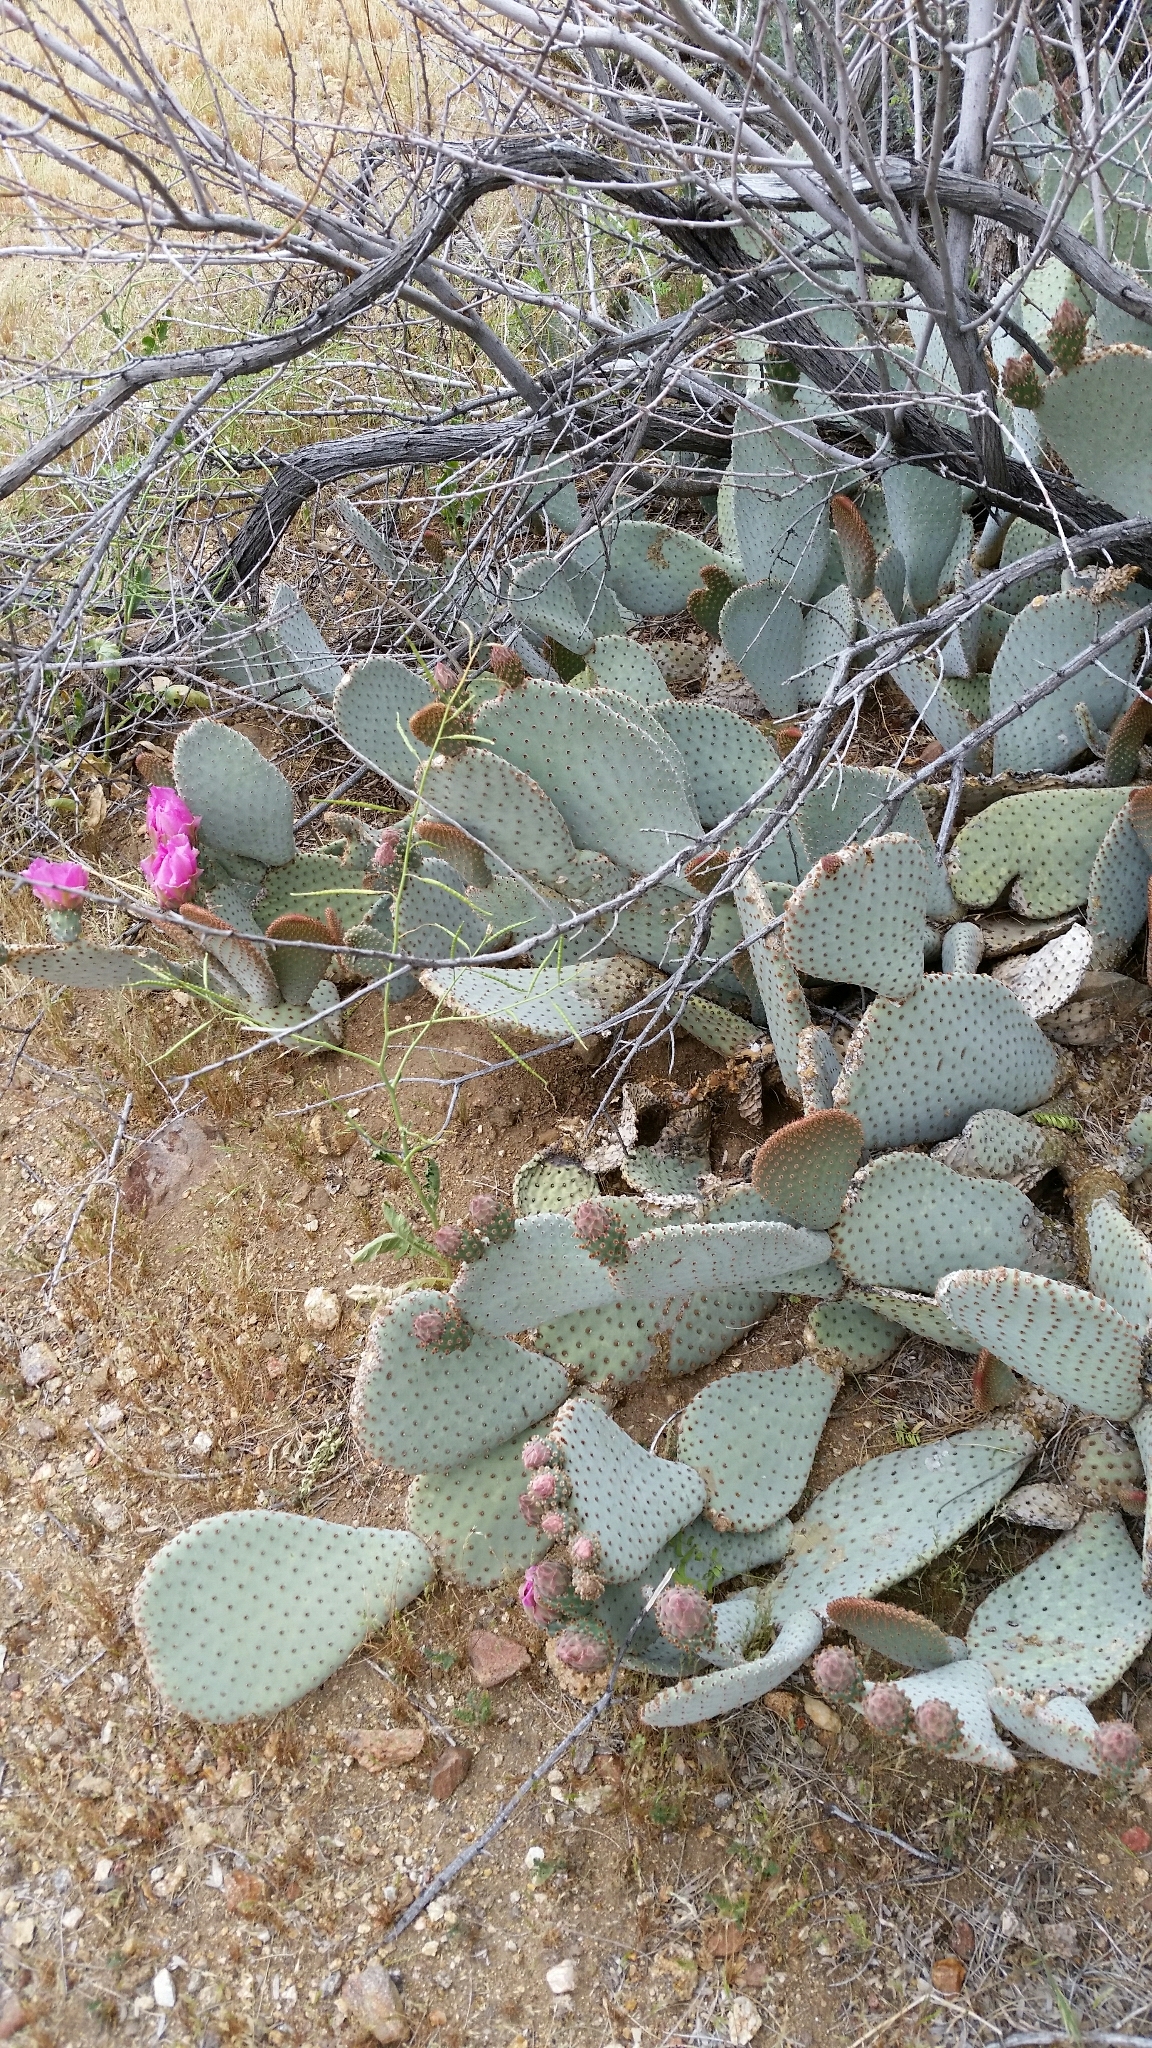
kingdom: Plantae
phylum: Tracheophyta
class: Magnoliopsida
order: Caryophyllales
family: Cactaceae
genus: Opuntia
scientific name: Opuntia basilaris
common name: Beavertail prickly-pear
